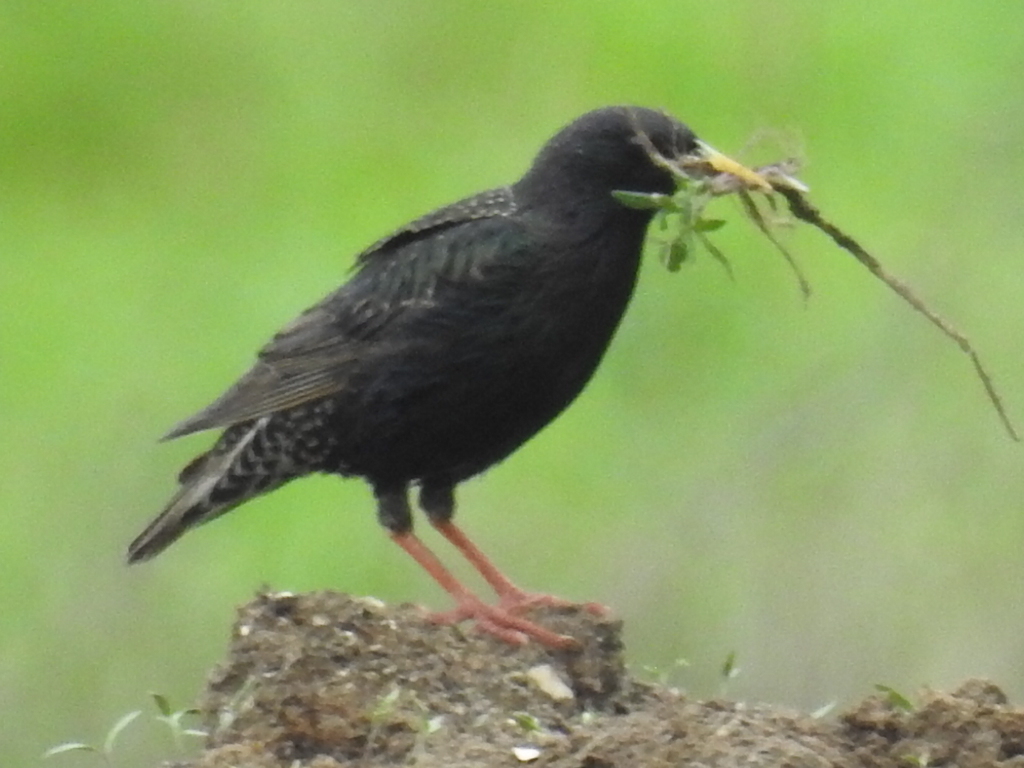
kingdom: Animalia
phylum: Chordata
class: Aves
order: Passeriformes
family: Sturnidae
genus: Sturnus
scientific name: Sturnus vulgaris
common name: Common starling
